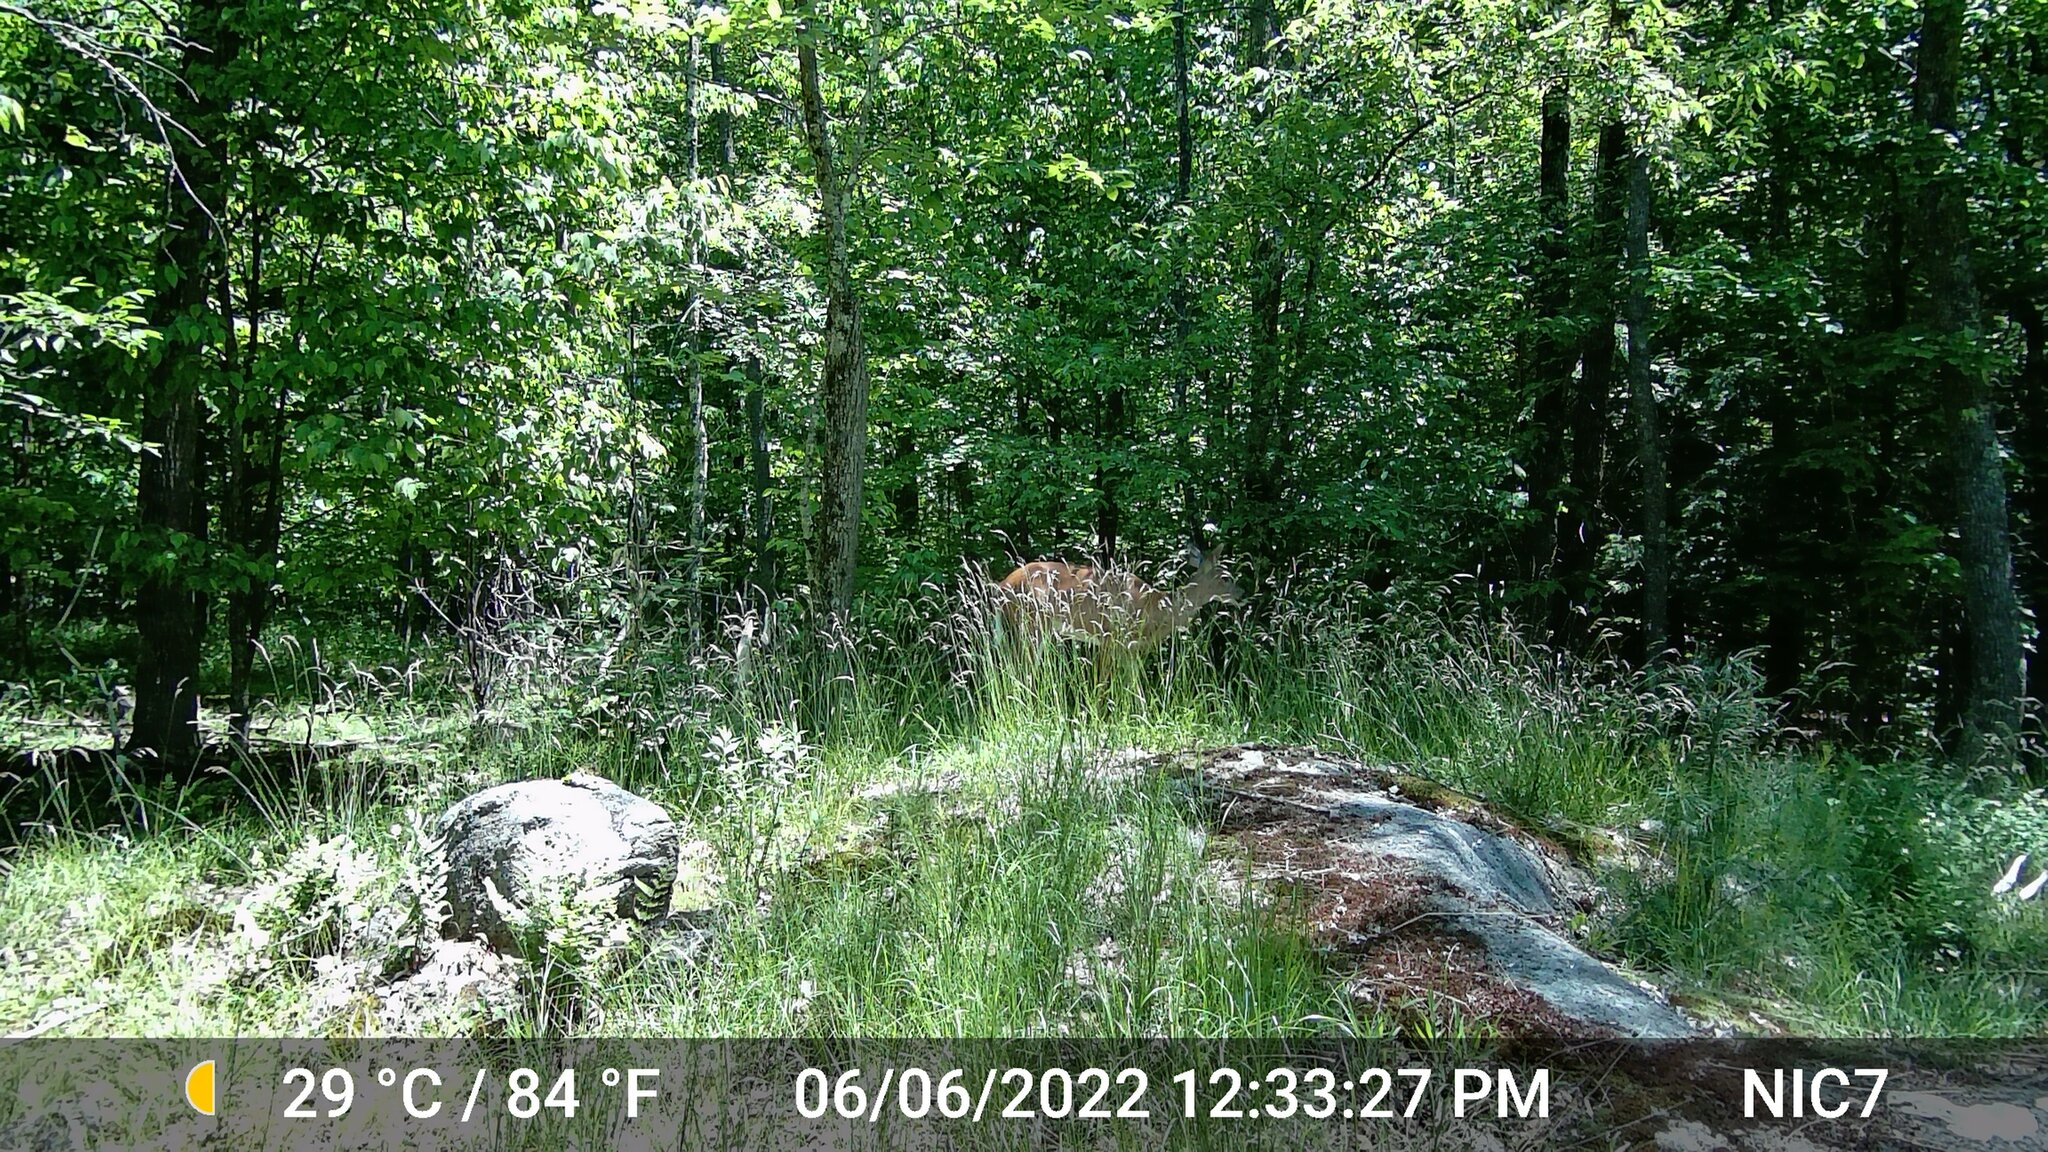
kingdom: Animalia
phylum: Chordata
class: Mammalia
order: Artiodactyla
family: Cervidae
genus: Odocoileus
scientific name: Odocoileus virginianus
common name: White-tailed deer
